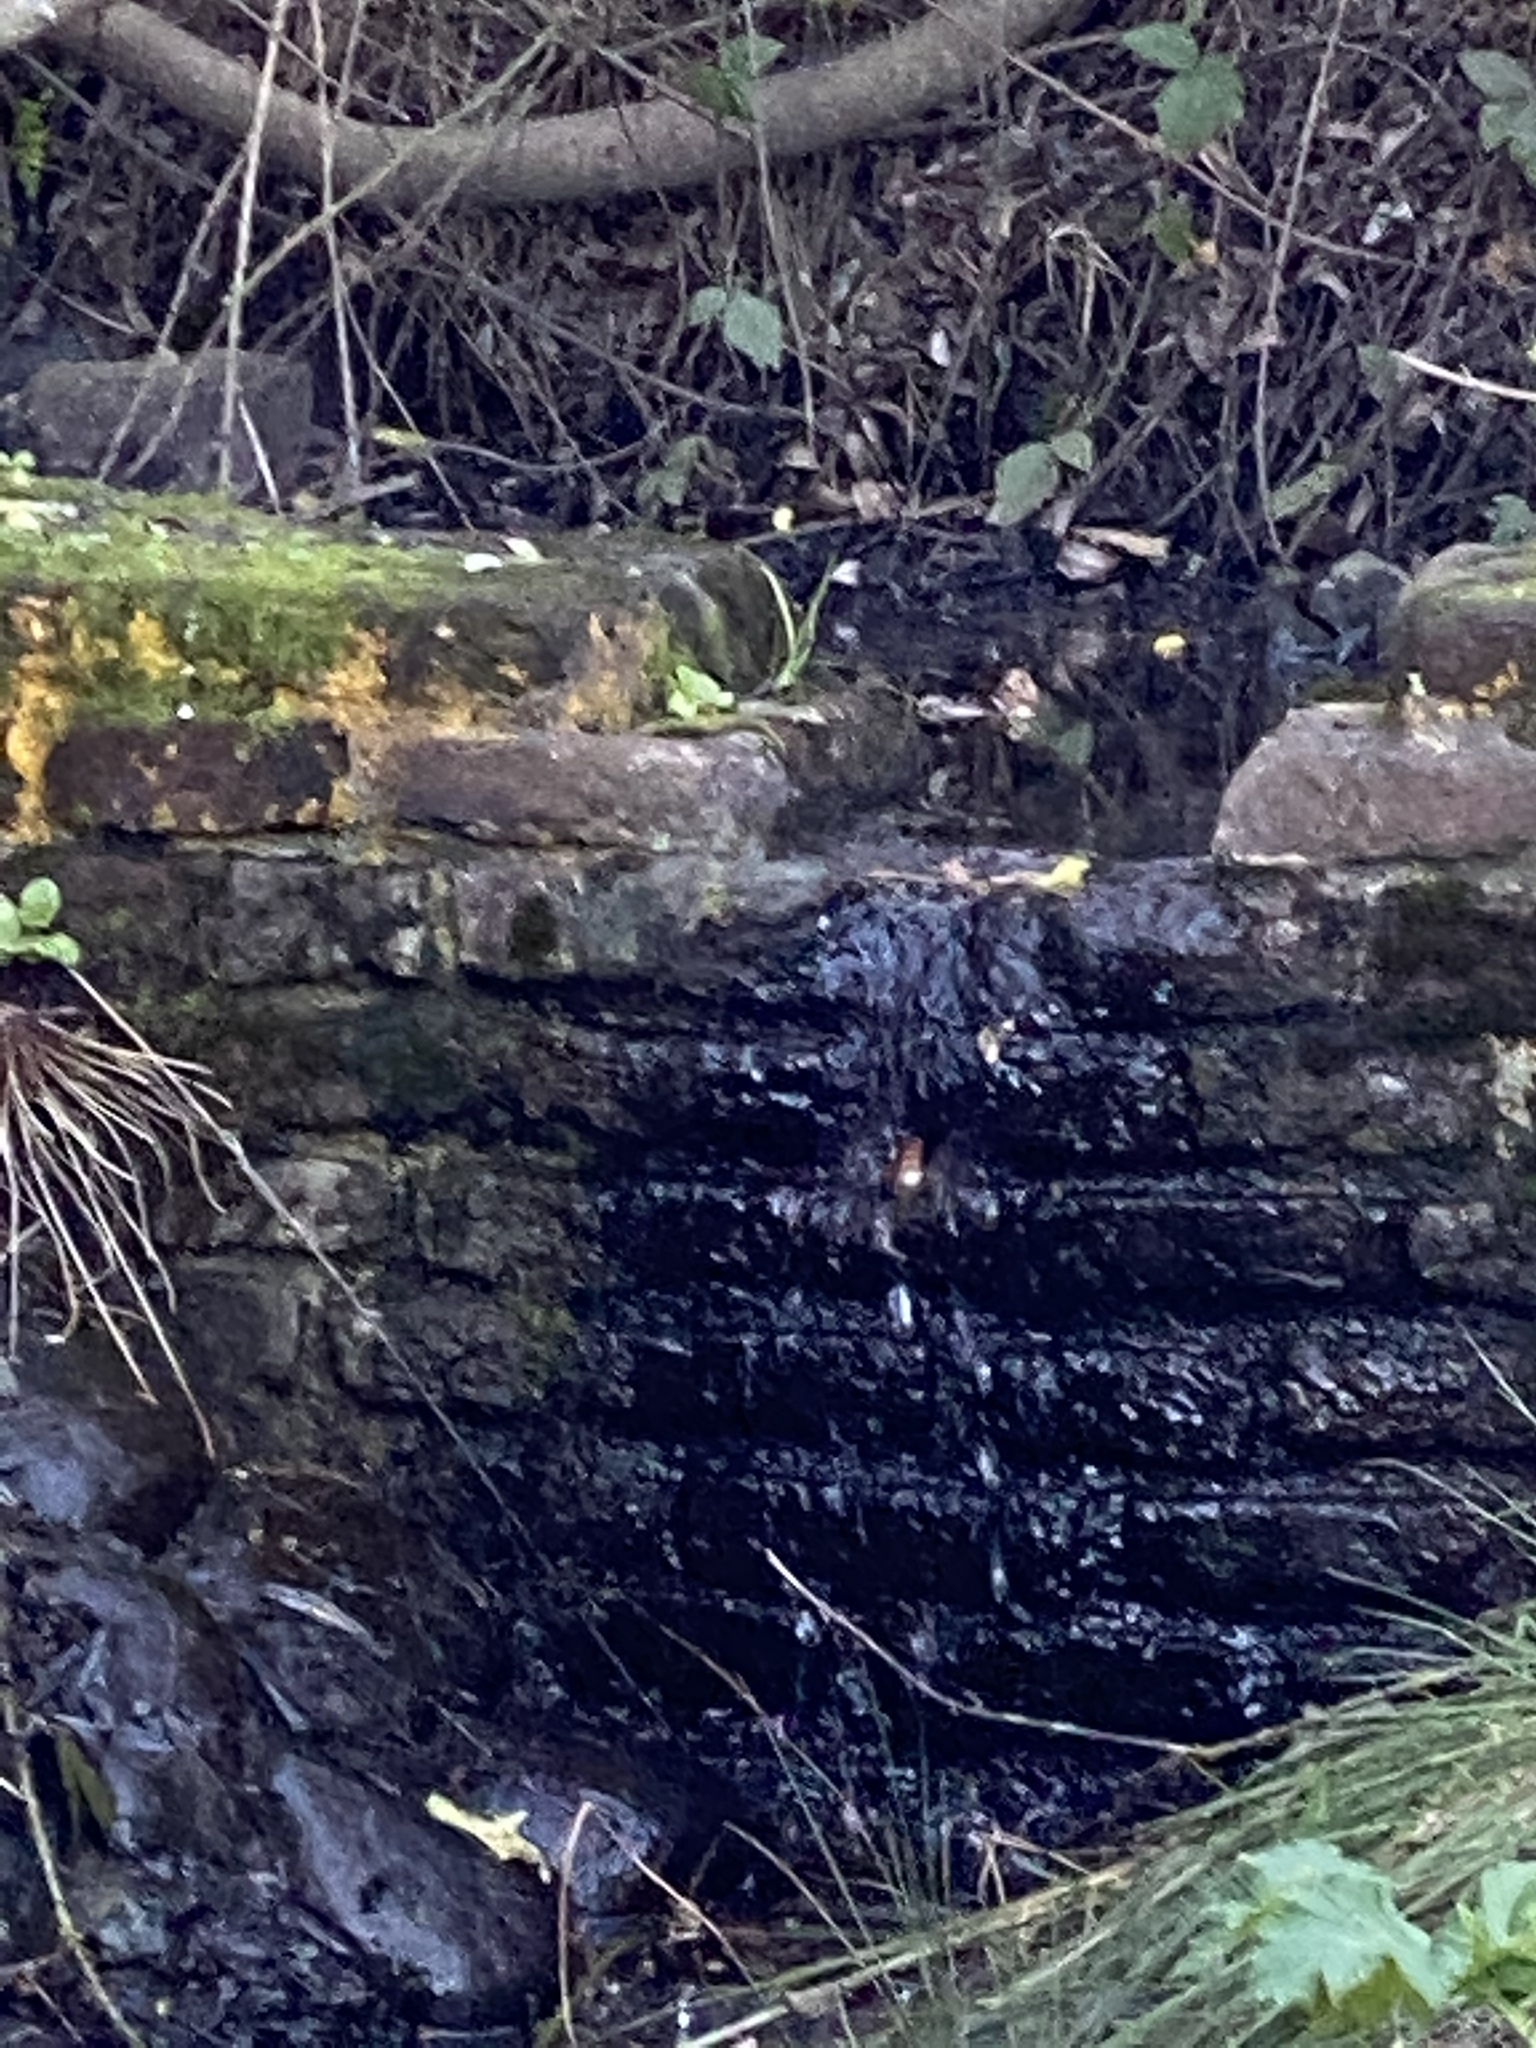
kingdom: Animalia
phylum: Chordata
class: Aves
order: Apodiformes
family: Trochilidae
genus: Selasphorus
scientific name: Selasphorus sasin
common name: Allen's hummingbird
